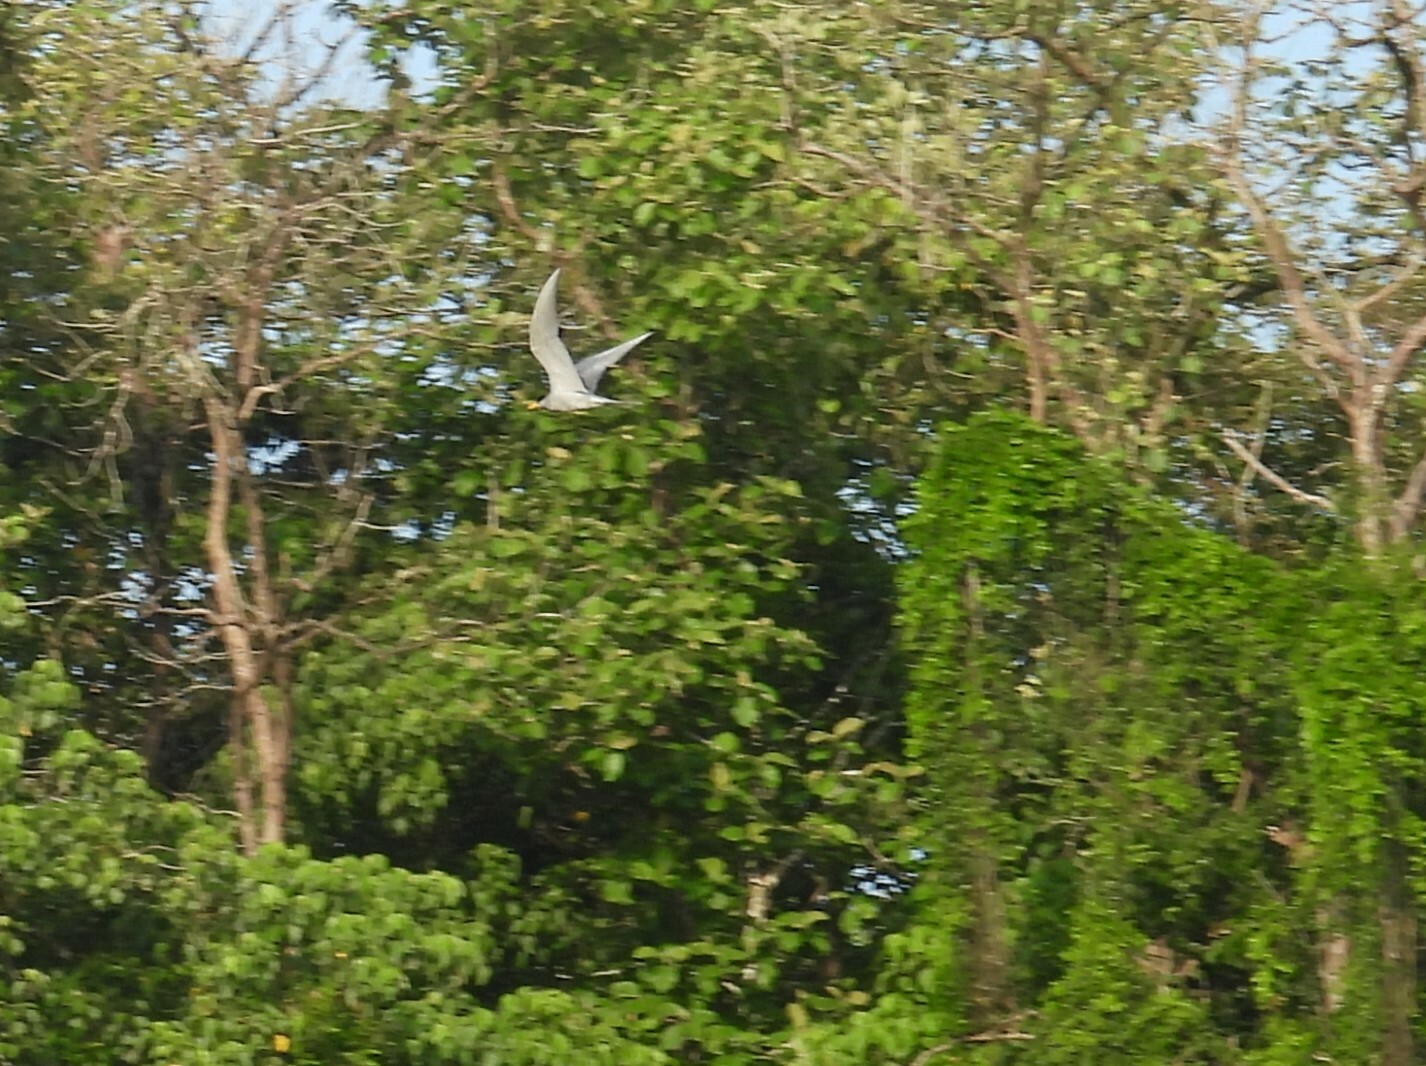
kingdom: Animalia
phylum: Chordata
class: Aves
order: Charadriiformes
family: Laridae
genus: Sterna
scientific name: Sterna aurantia
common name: River tern
